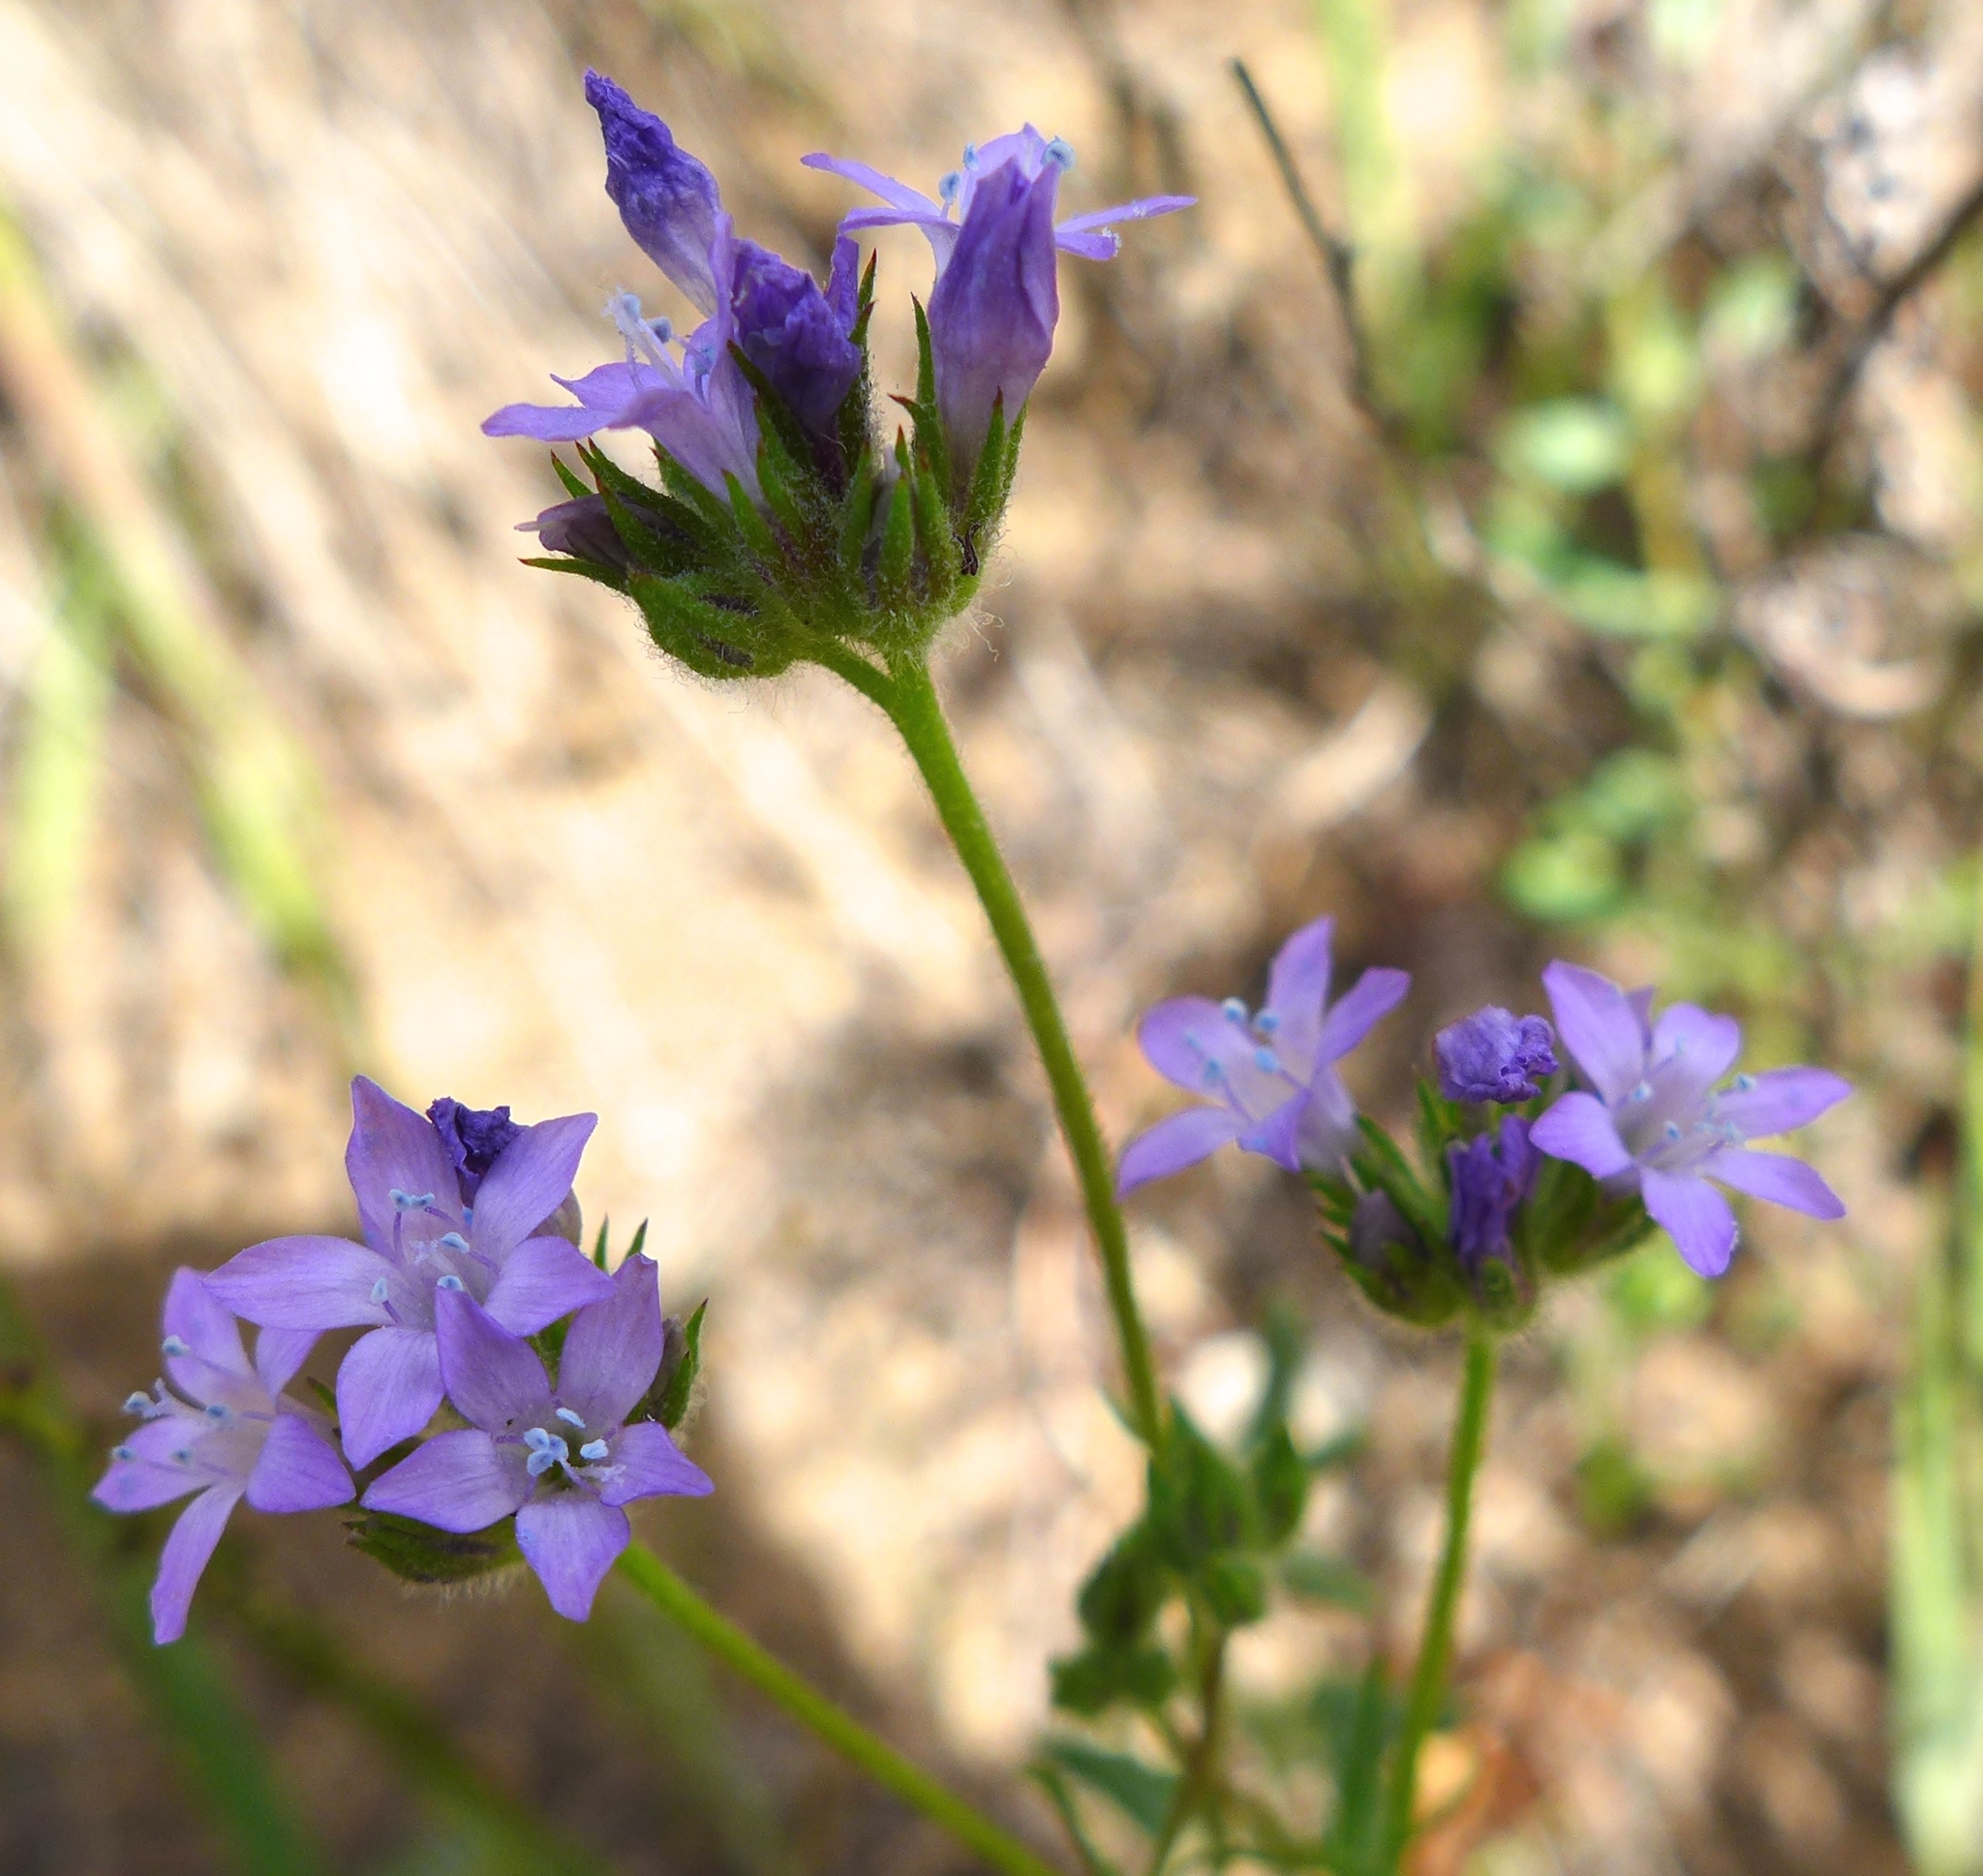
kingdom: Plantae
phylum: Tracheophyta
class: Magnoliopsida
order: Ericales
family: Polemoniaceae
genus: Gilia
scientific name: Gilia achilleifolia
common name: California gily-flower
